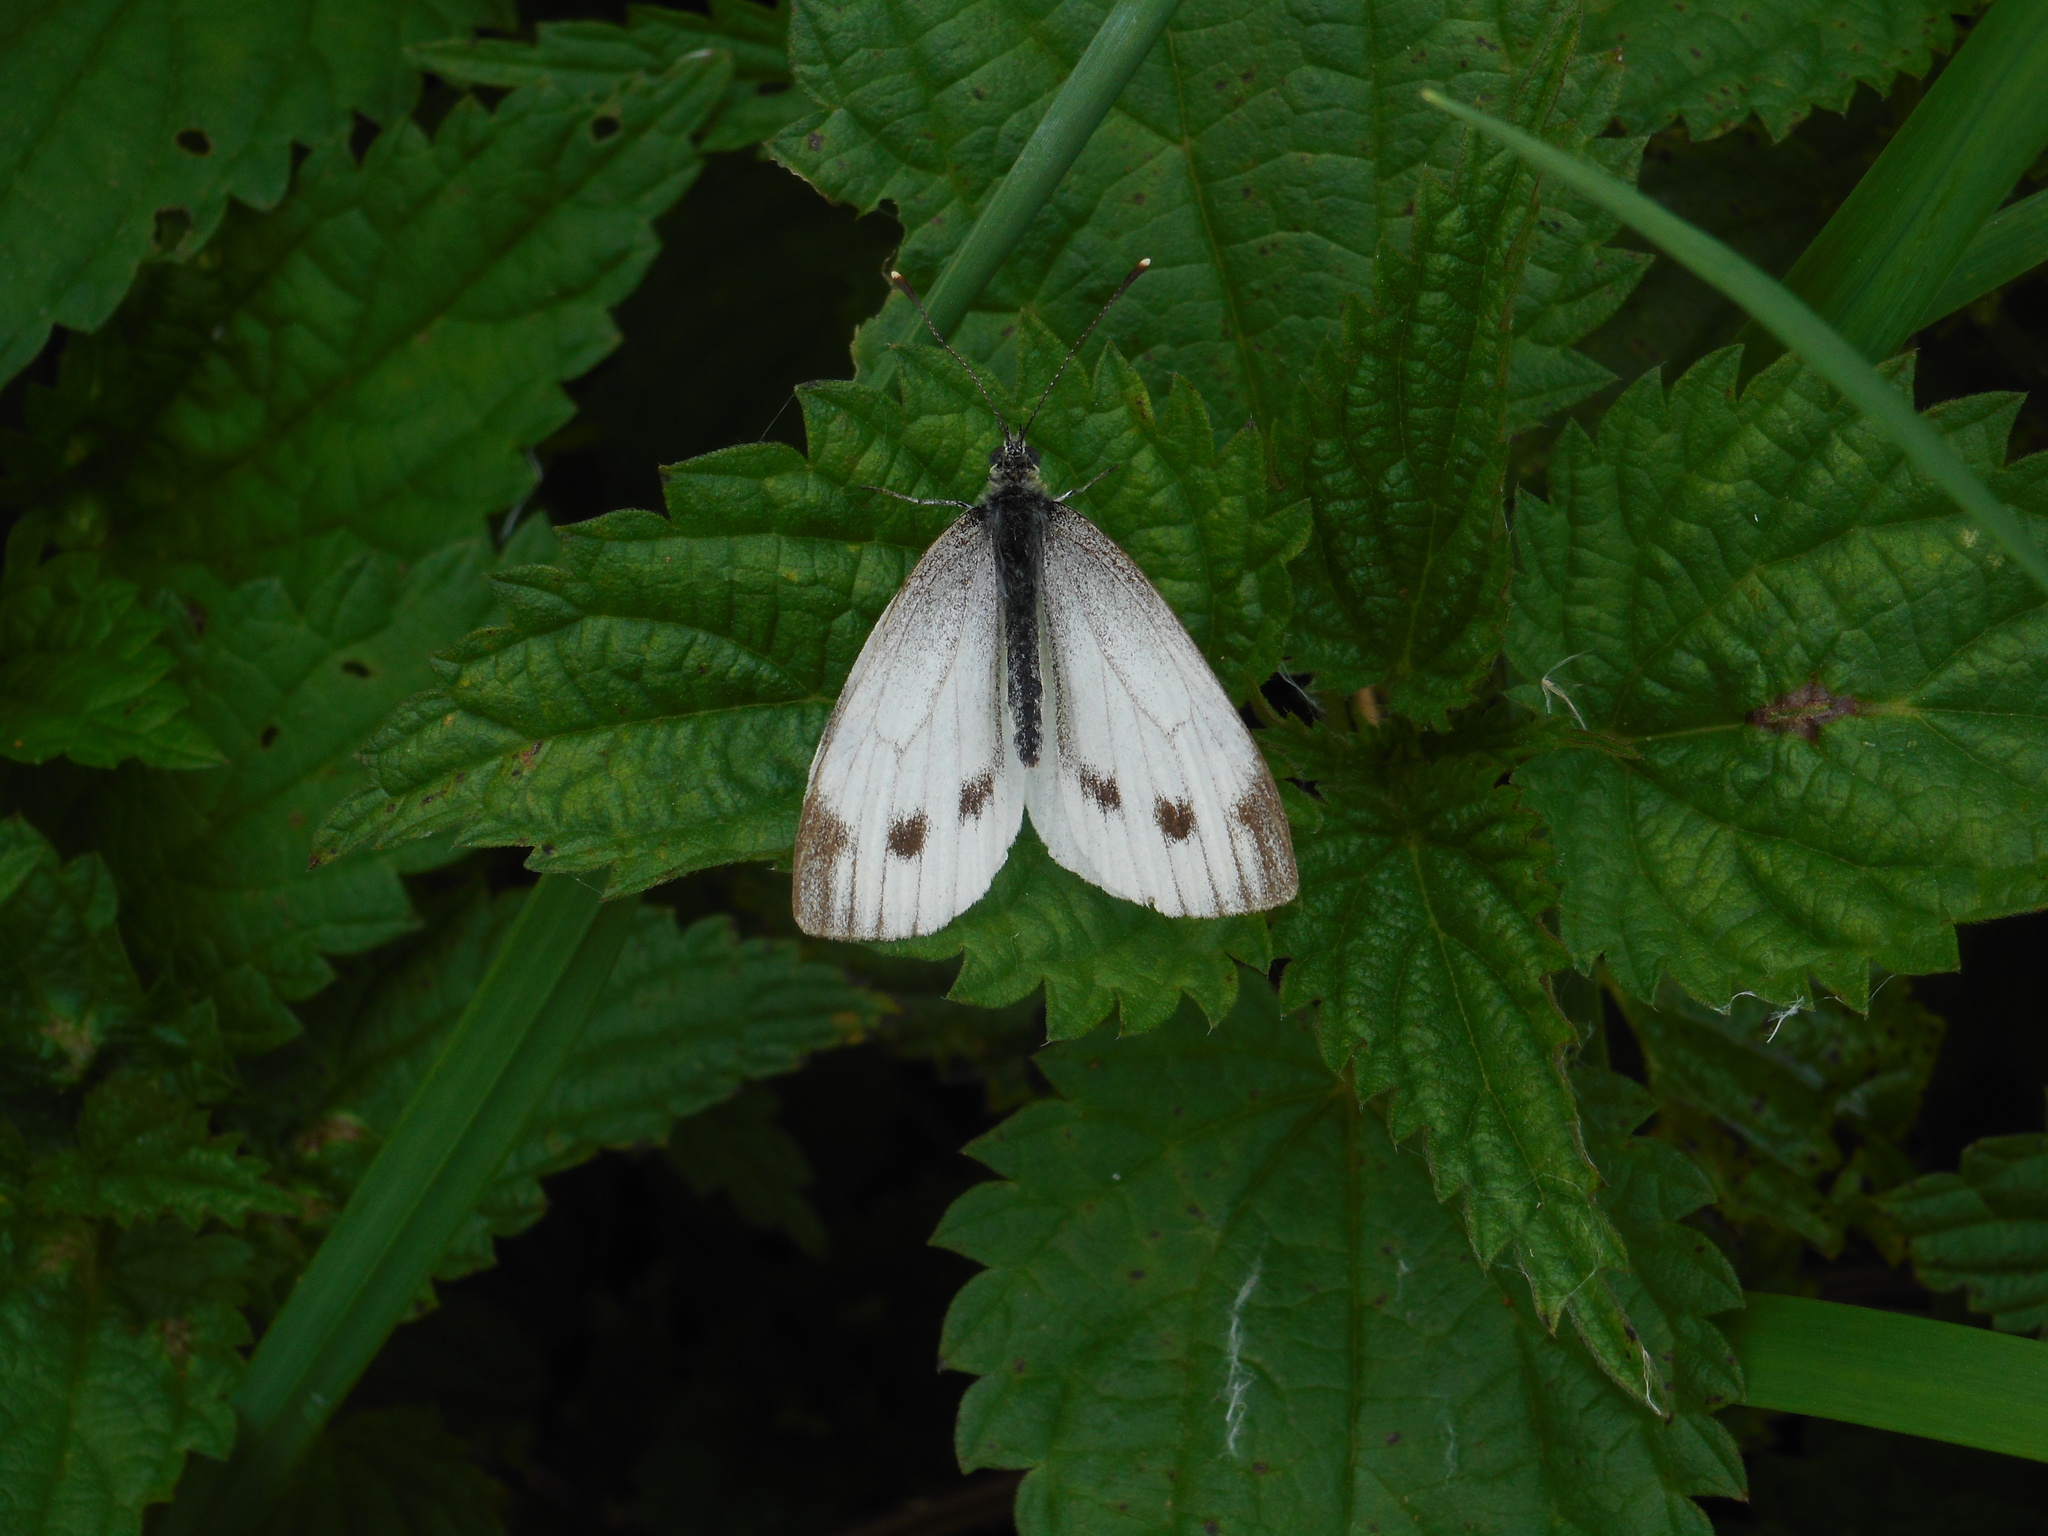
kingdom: Animalia
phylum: Arthropoda
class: Insecta
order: Lepidoptera
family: Pieridae
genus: Pieris
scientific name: Pieris napi
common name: Green-veined white
